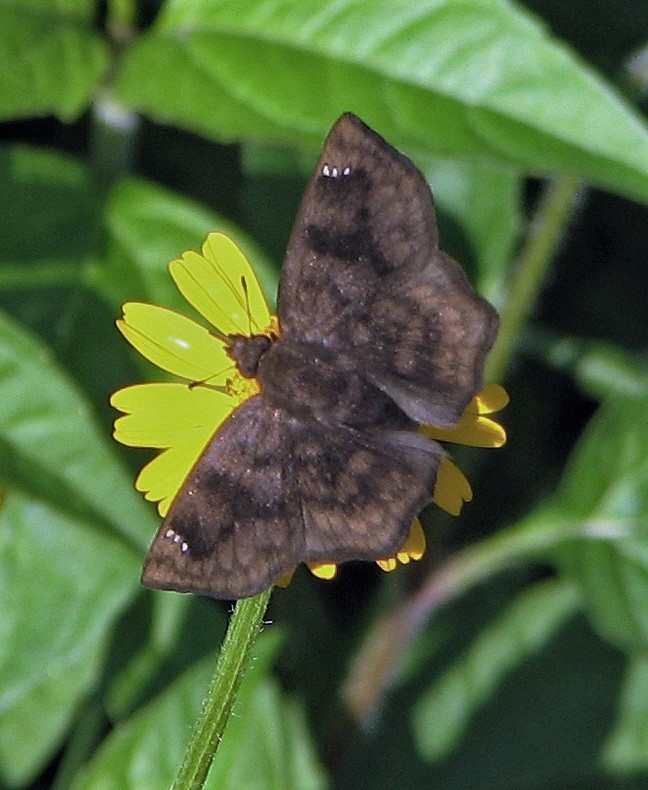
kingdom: Animalia
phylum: Arthropoda
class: Insecta
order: Lepidoptera
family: Hesperiidae
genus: Nisoniades
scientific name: Nisoniades macarius
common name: Macarius tufted-skipper
